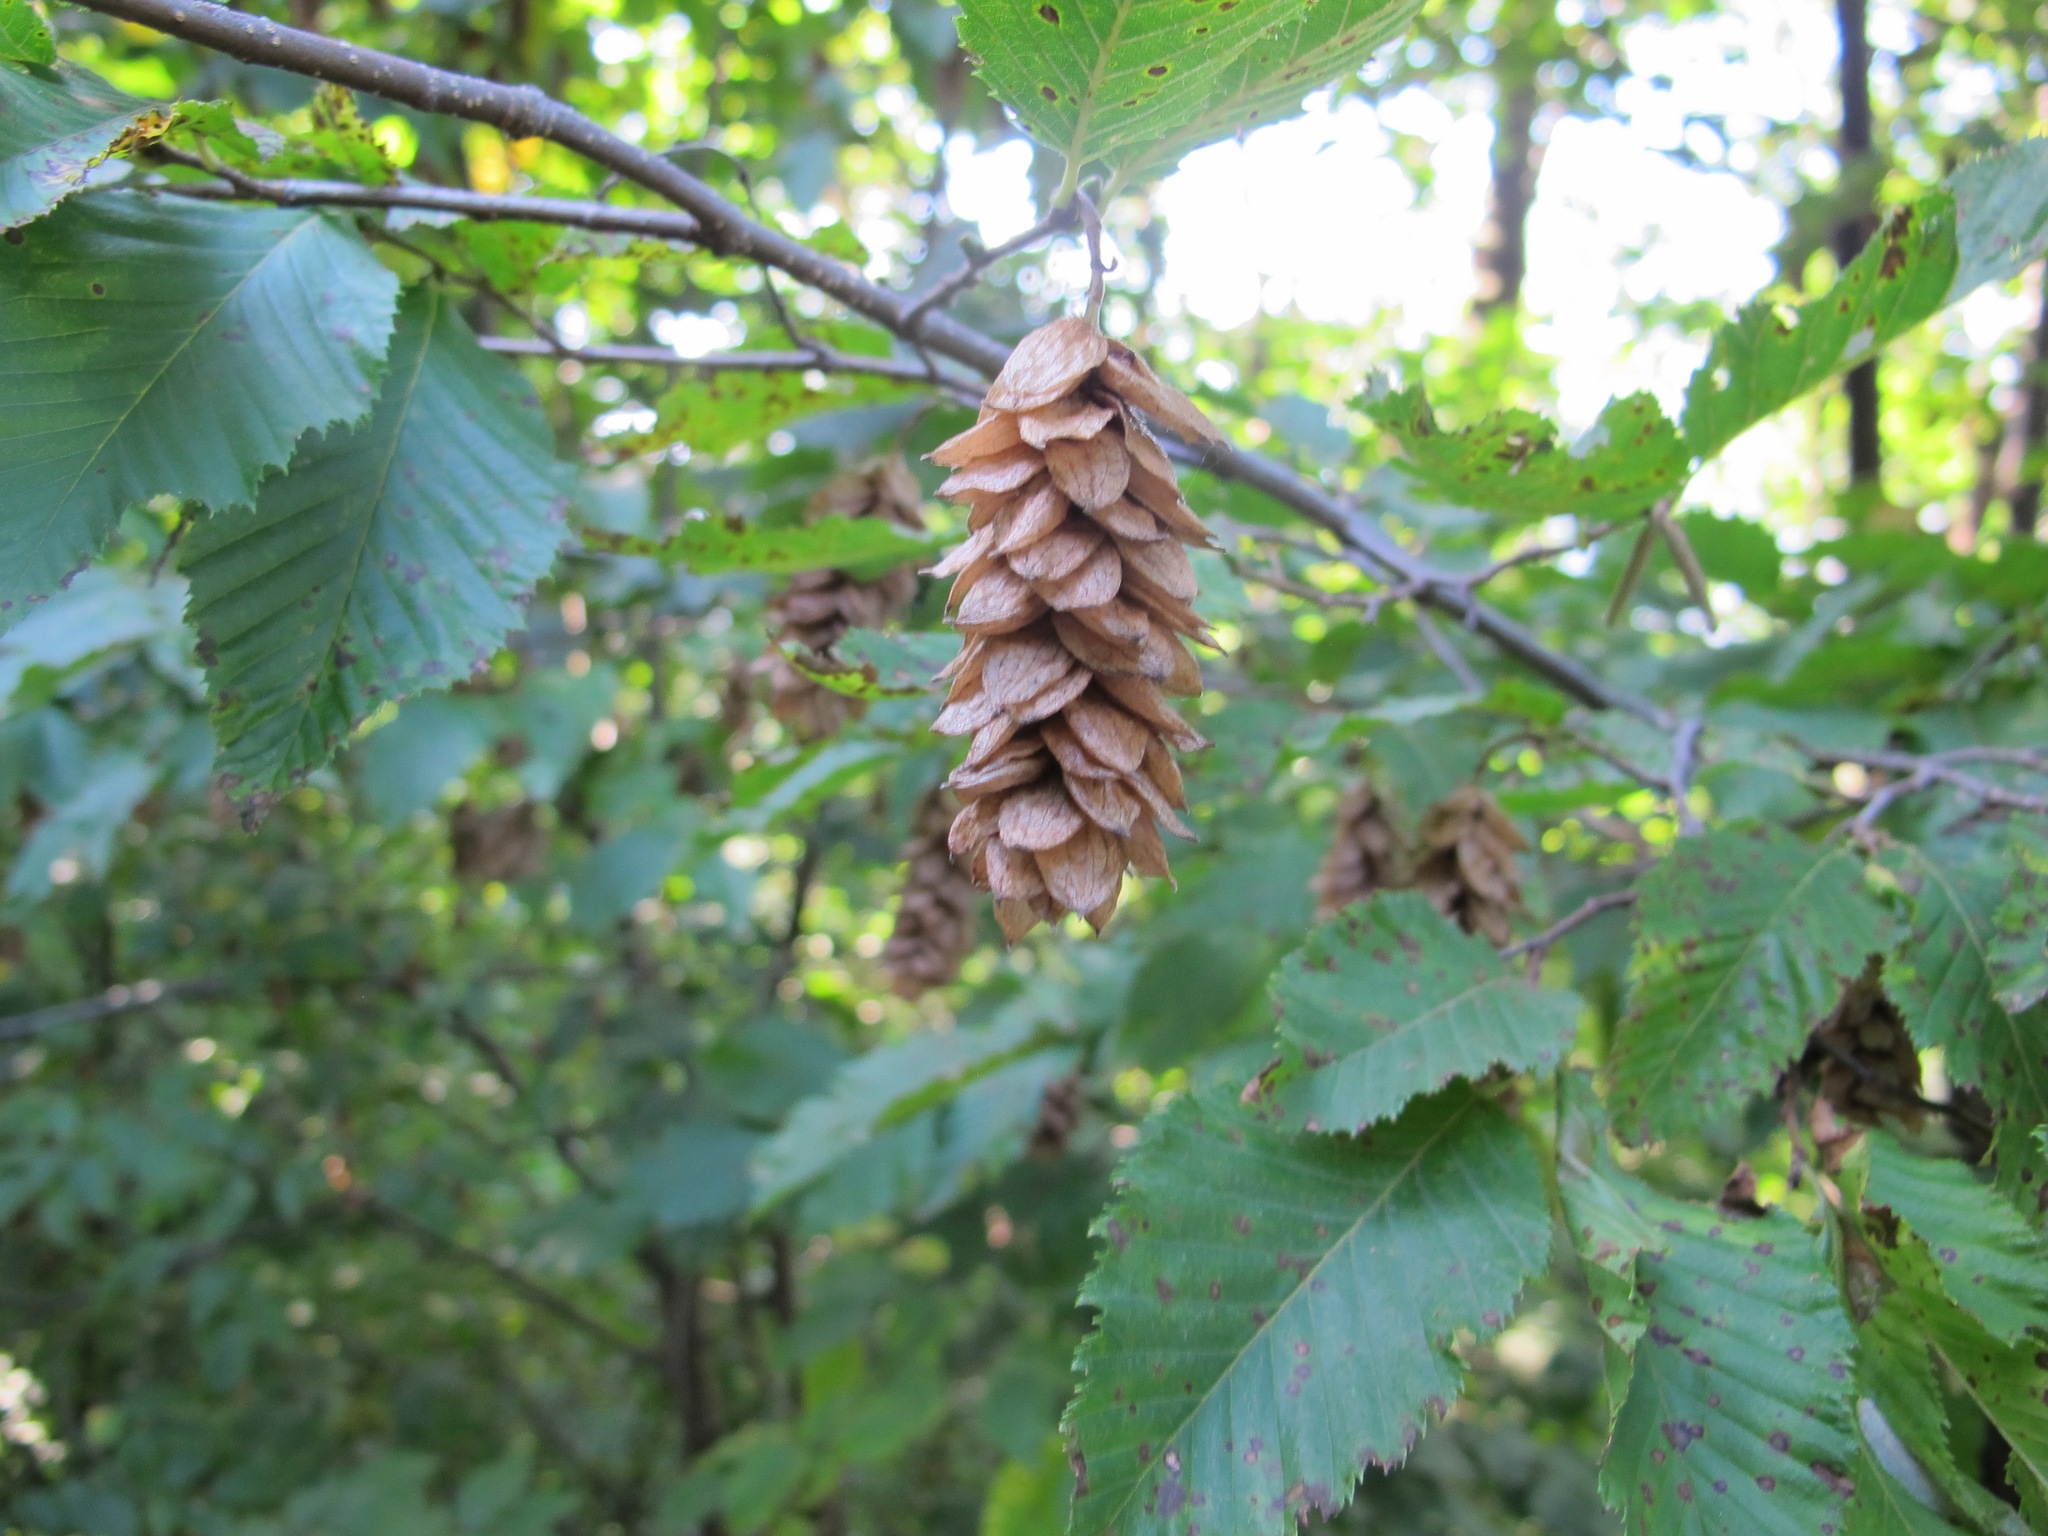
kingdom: Plantae
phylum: Tracheophyta
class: Magnoliopsida
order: Fagales
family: Betulaceae
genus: Ostrya
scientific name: Ostrya carpinifolia
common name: European hop-hornbeam
